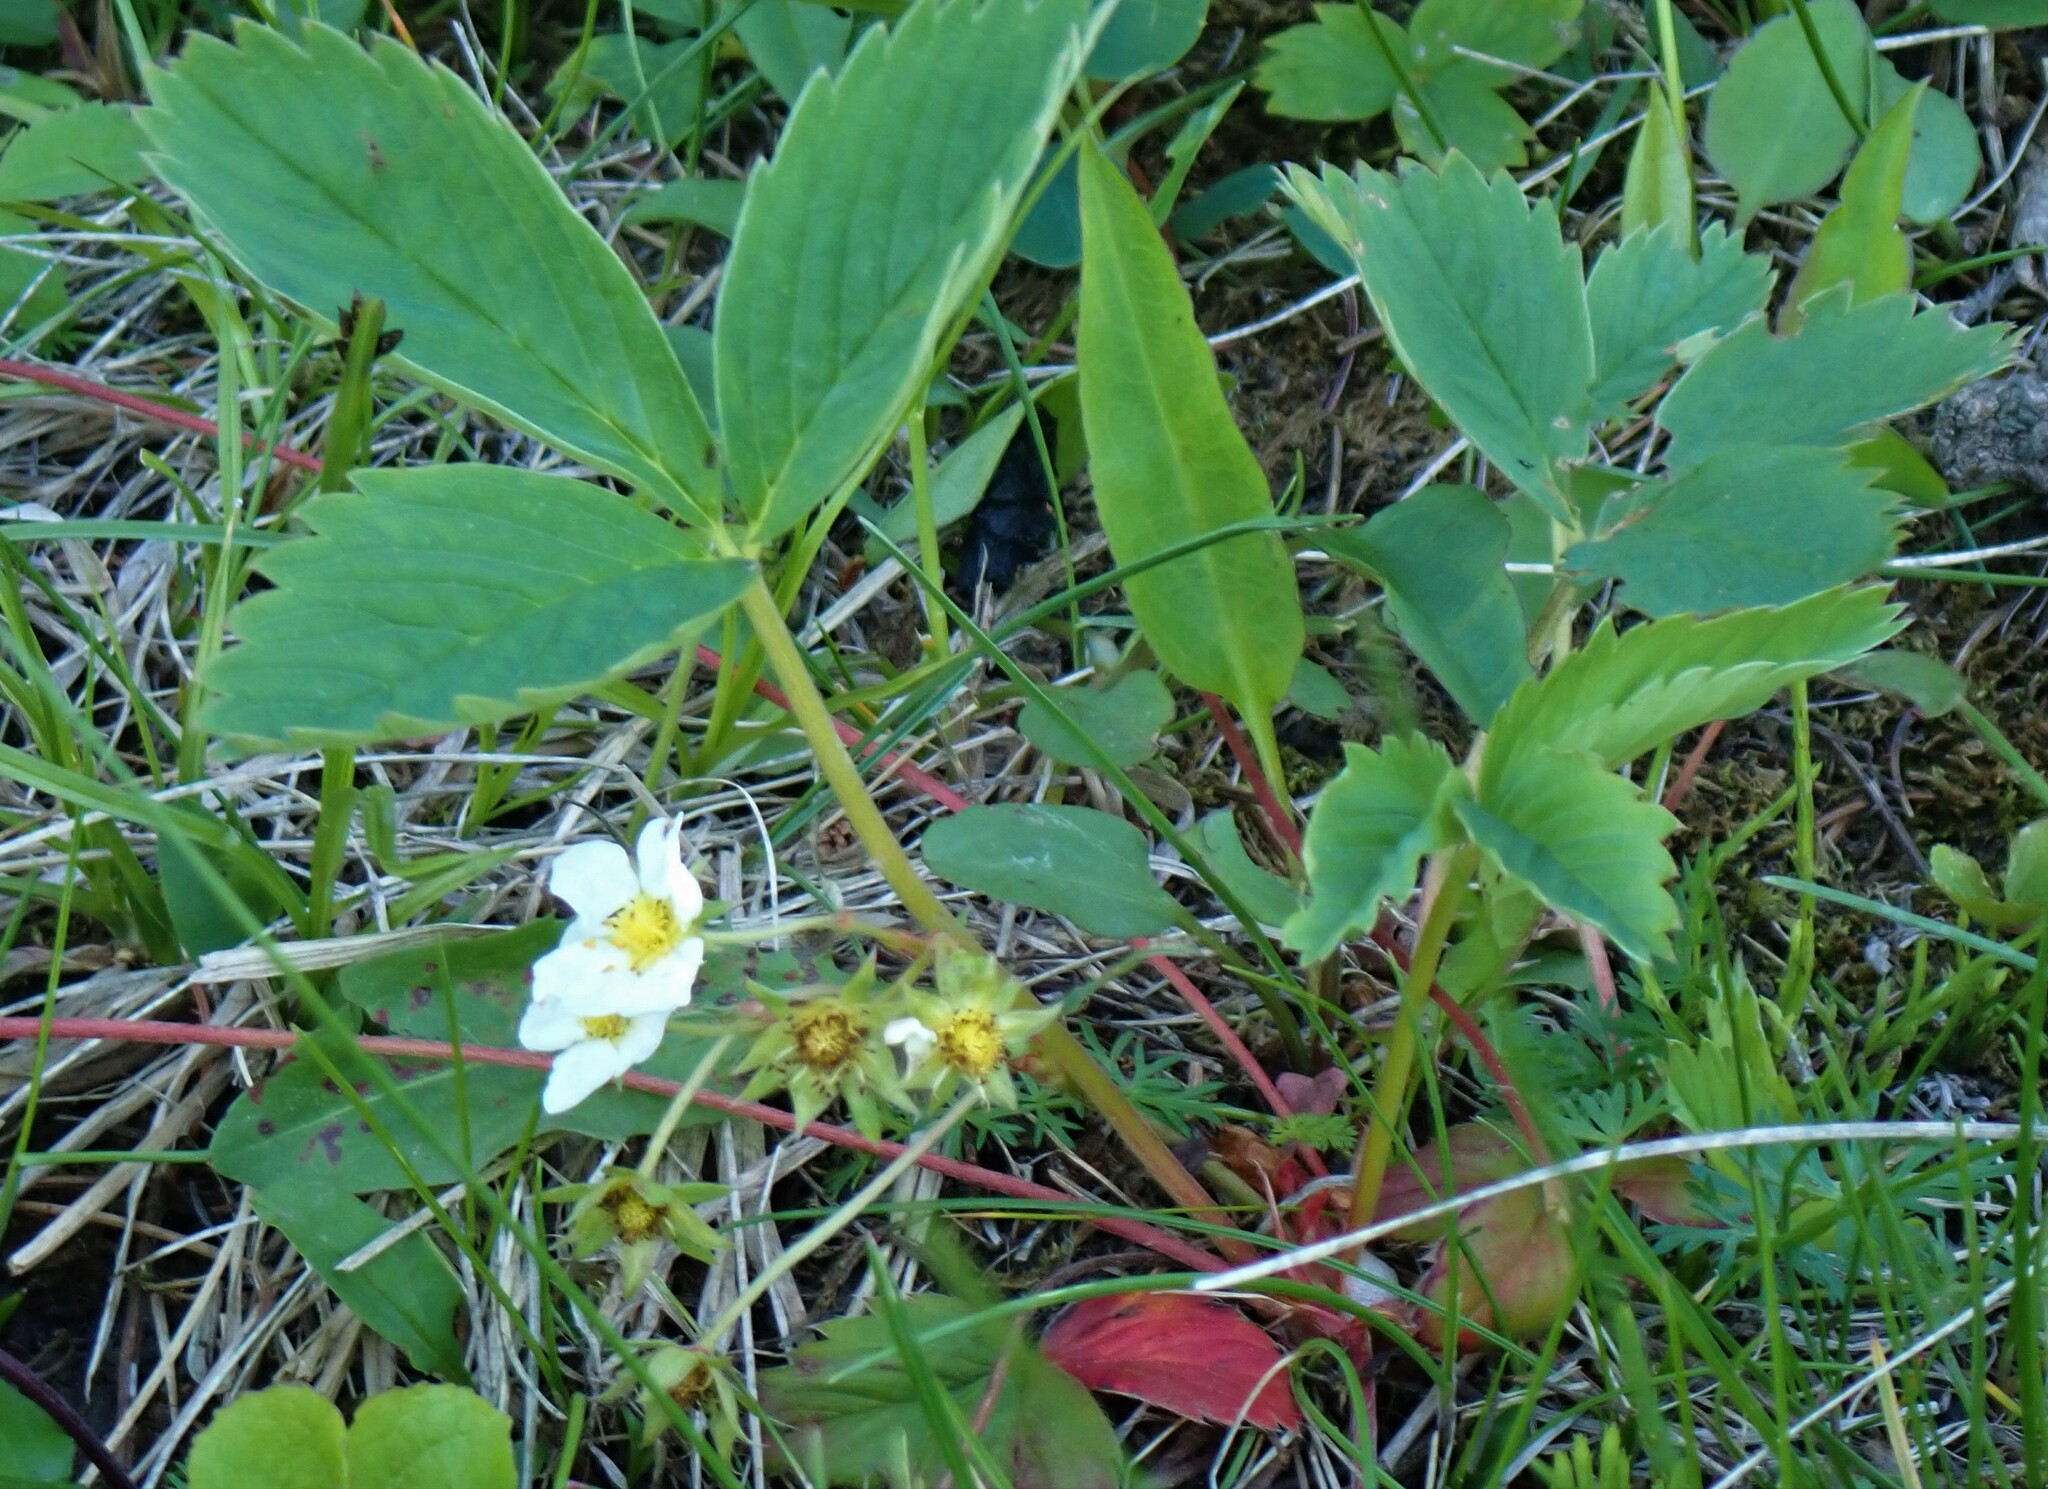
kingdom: Plantae
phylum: Tracheophyta
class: Magnoliopsida
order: Rosales
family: Rosaceae
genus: Fragaria
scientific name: Fragaria virginiana
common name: Thickleaved wild strawberry
